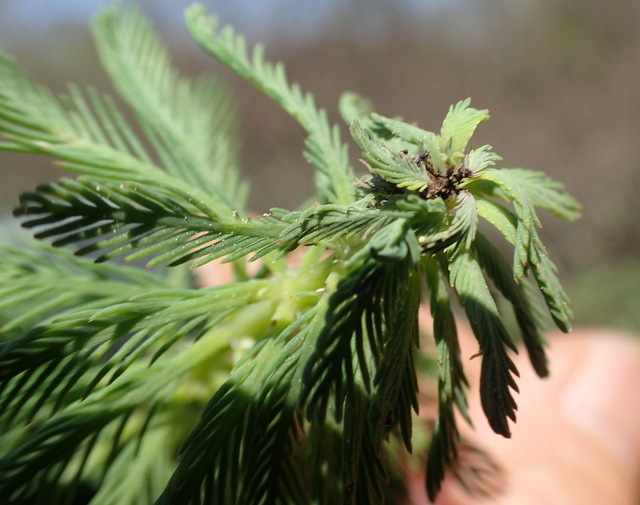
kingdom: Plantae
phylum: Tracheophyta
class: Magnoliopsida
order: Saxifragales
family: Haloragaceae
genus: Myriophyllum
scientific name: Myriophyllum aquaticum
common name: Parrot's feather
